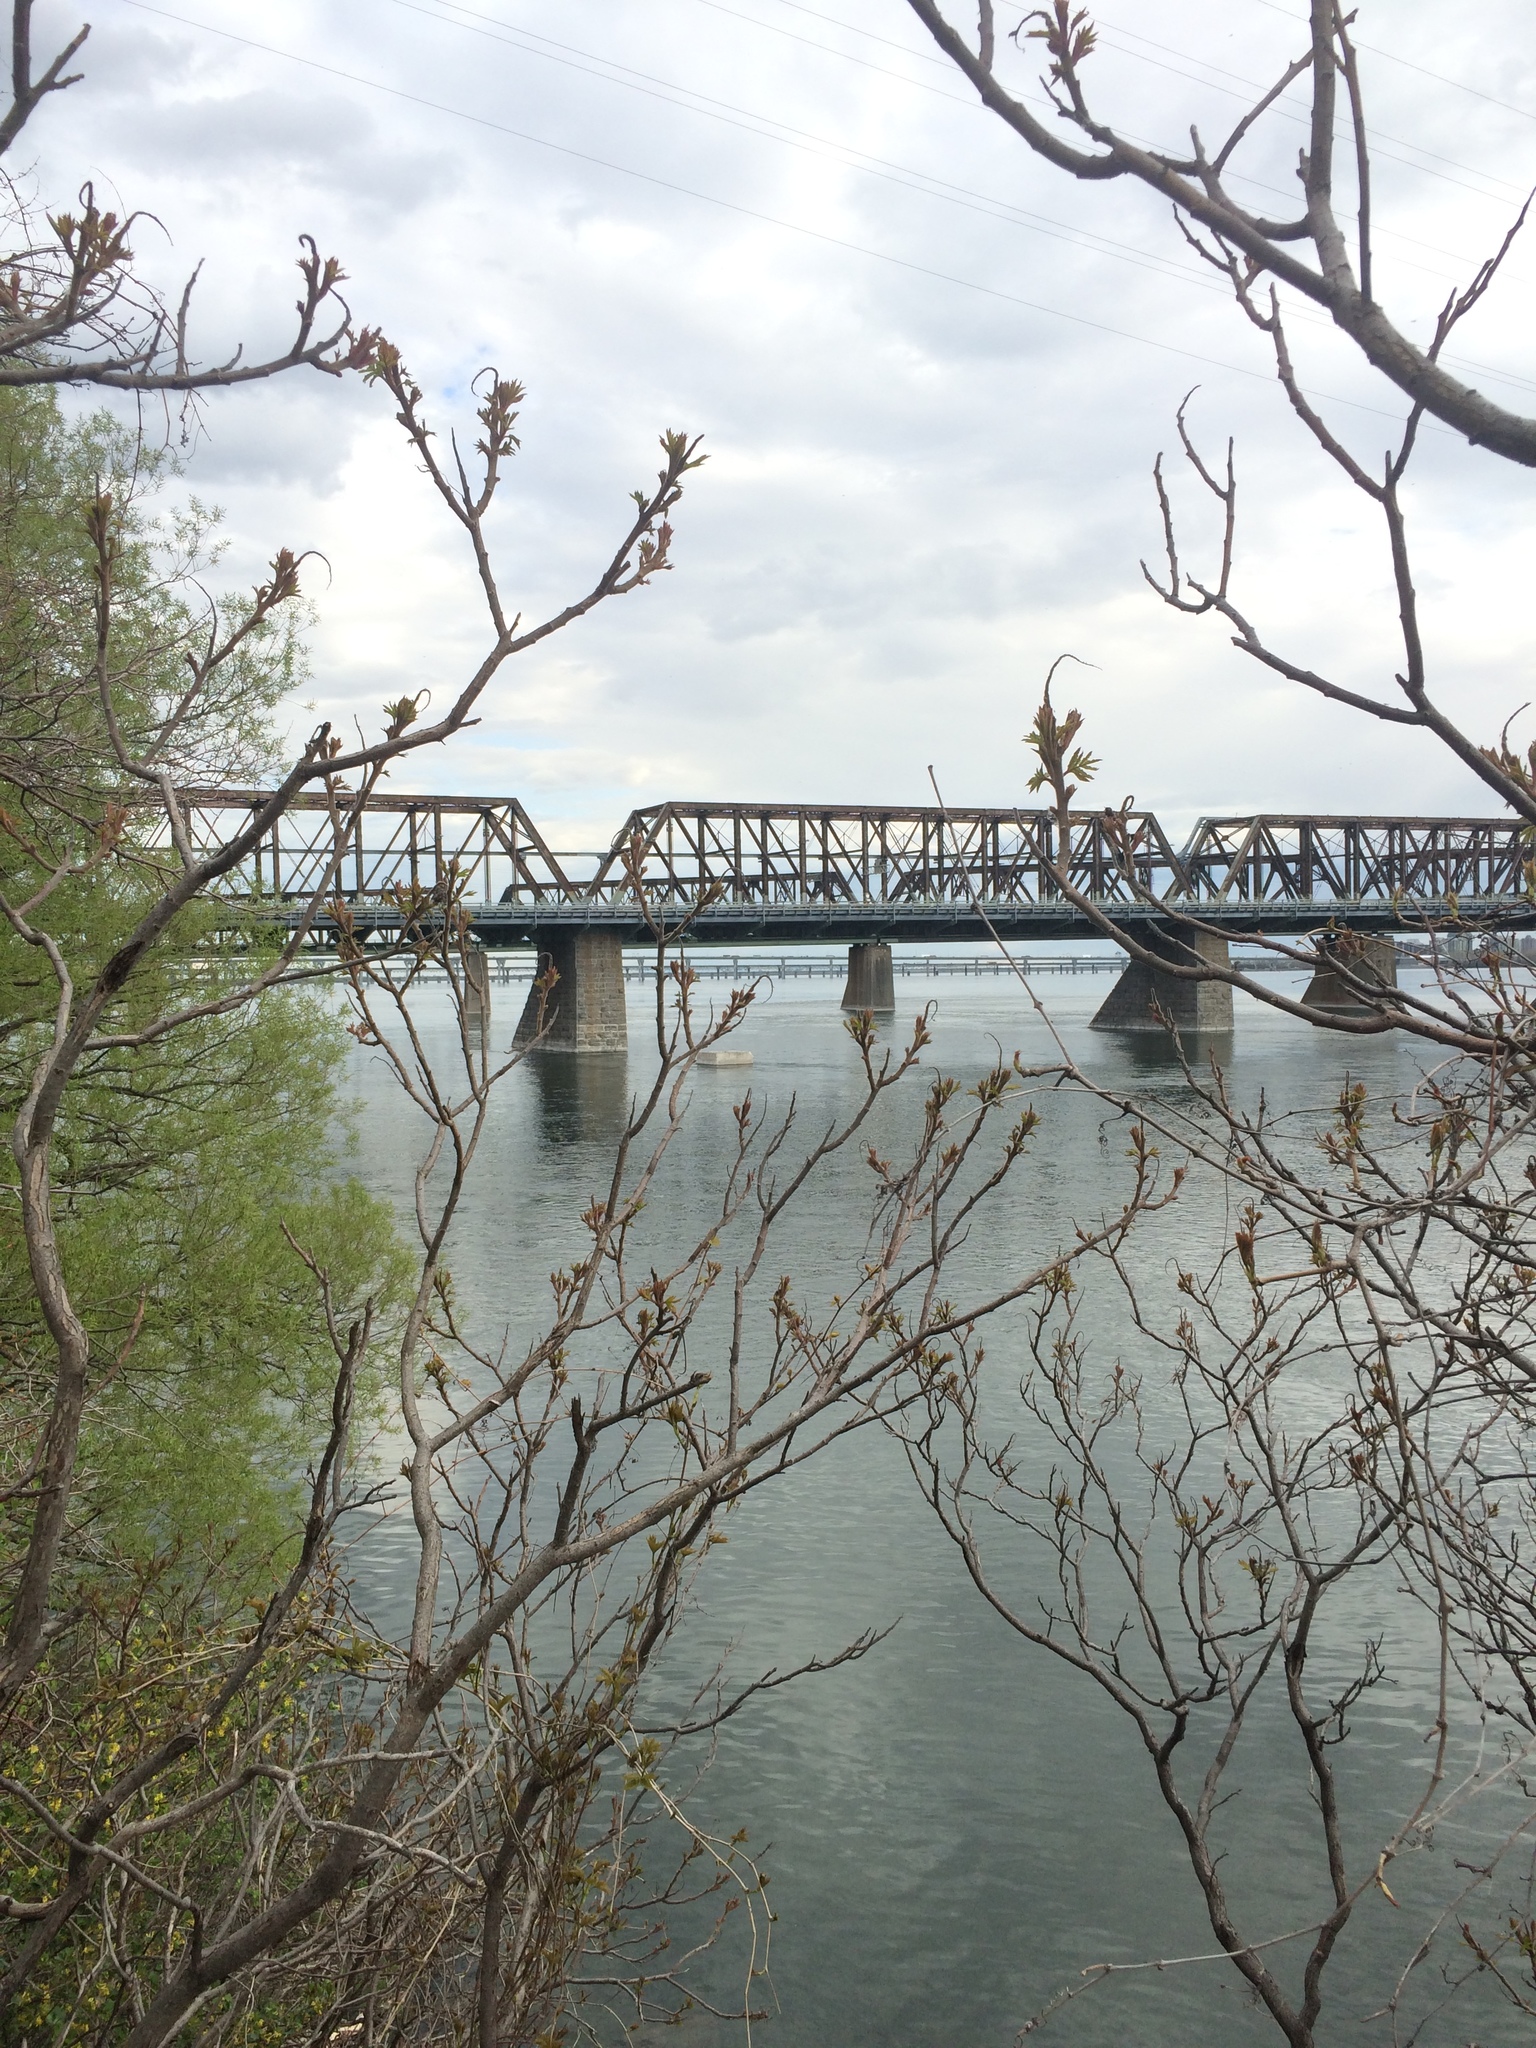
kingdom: Plantae
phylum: Tracheophyta
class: Magnoliopsida
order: Sapindales
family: Anacardiaceae
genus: Rhus
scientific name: Rhus typhina
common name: Staghorn sumac
